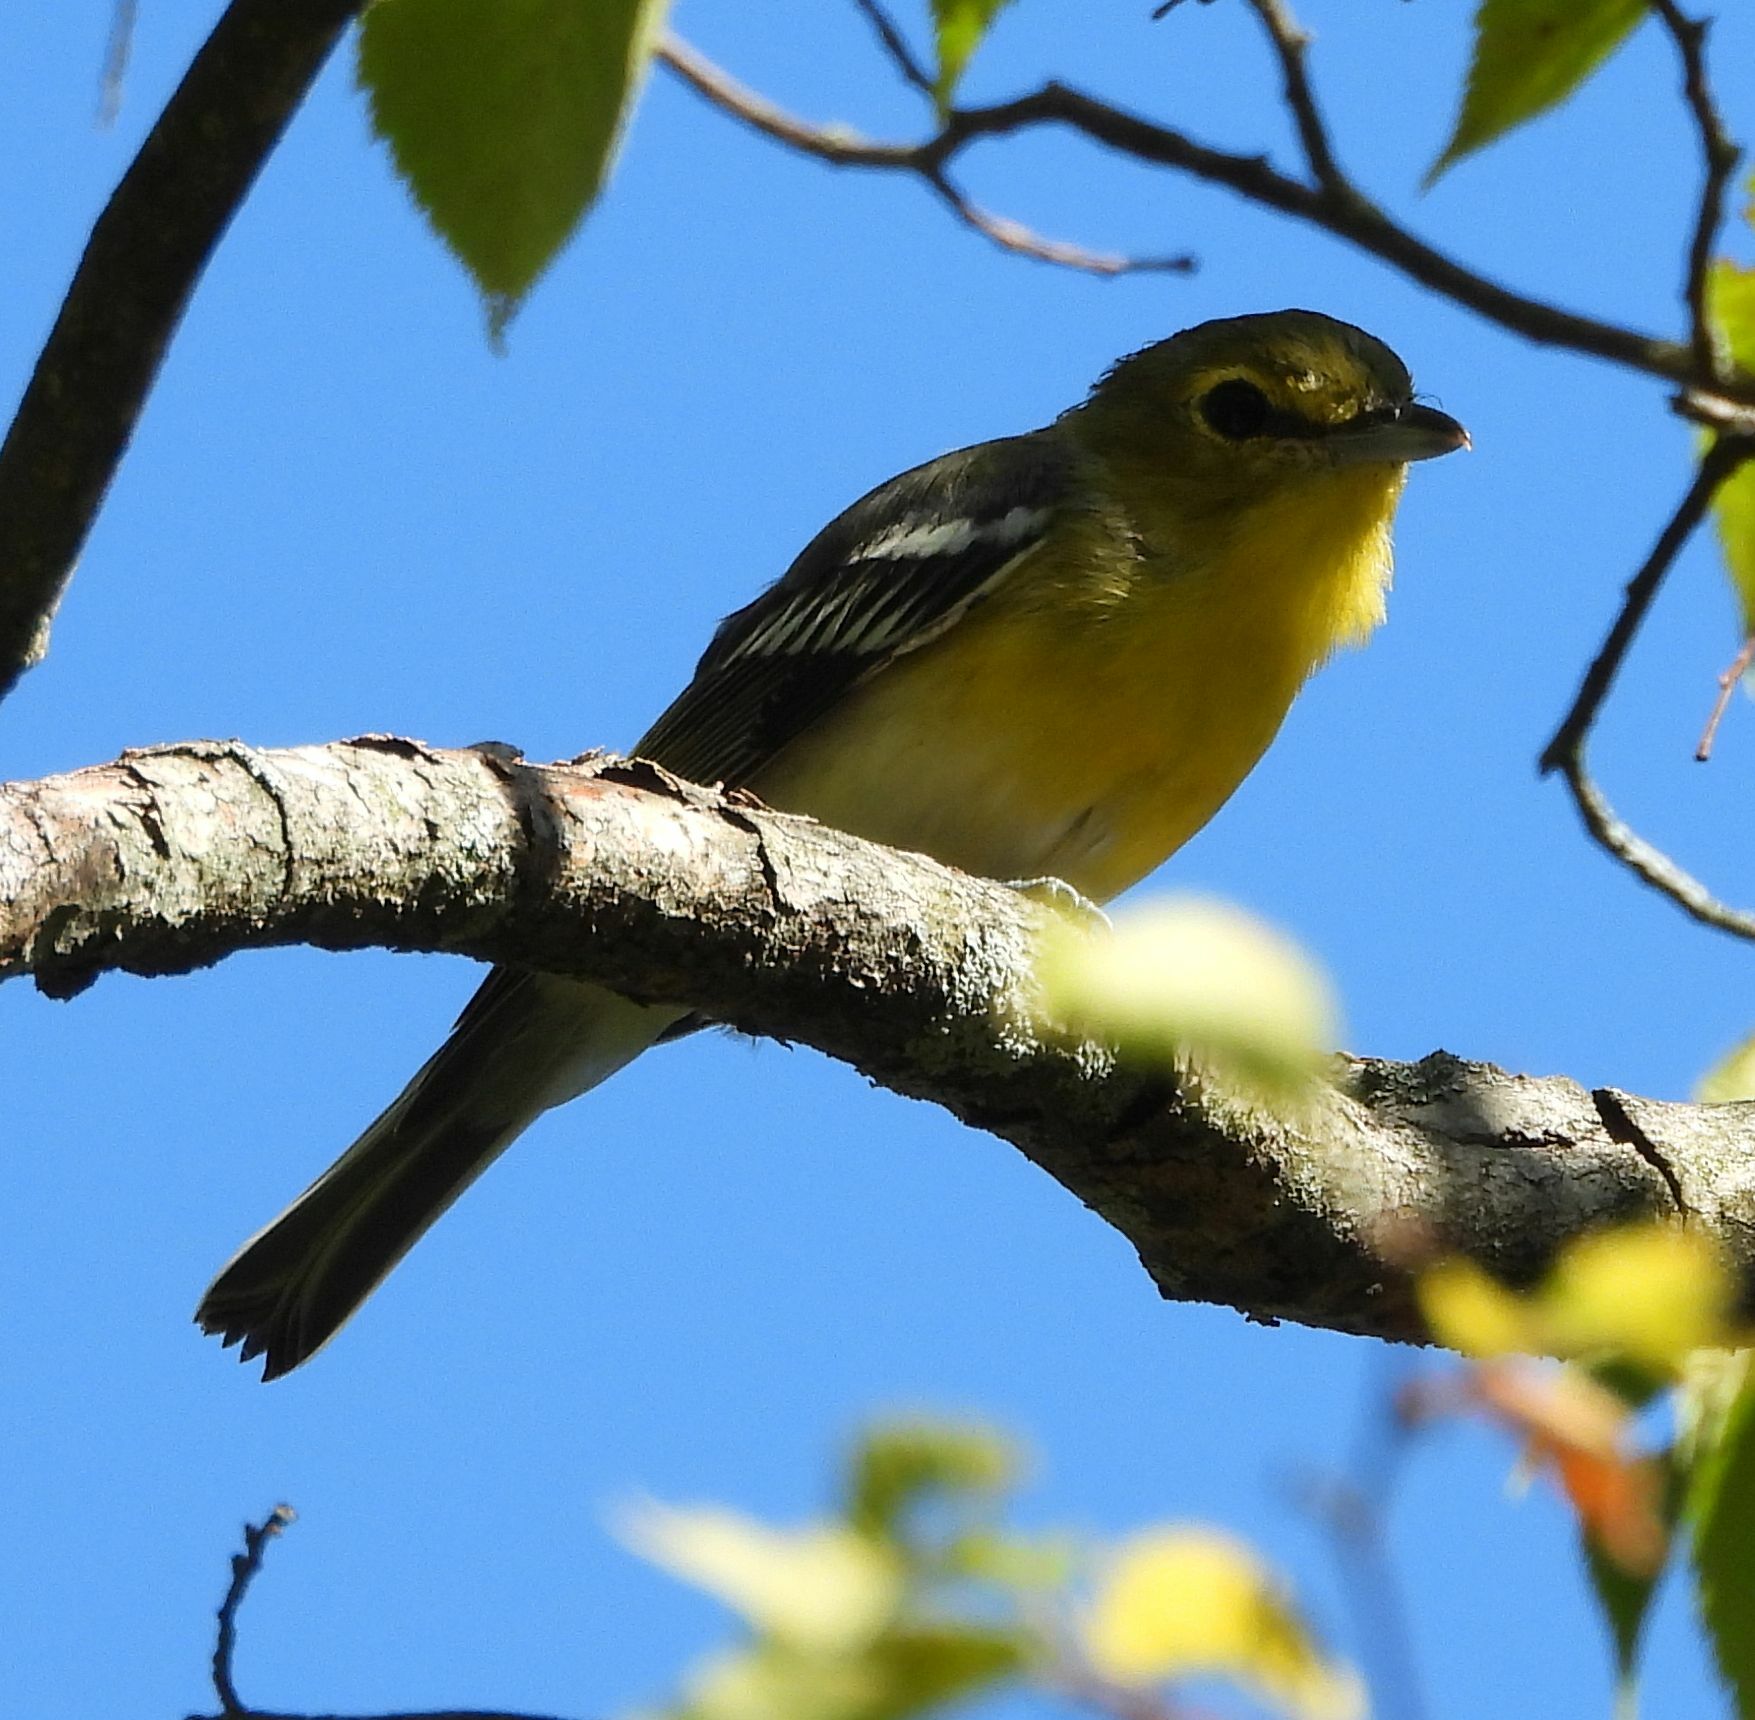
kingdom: Animalia
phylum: Chordata
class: Aves
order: Passeriformes
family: Vireonidae
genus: Vireo
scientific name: Vireo flavifrons
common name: Yellow-throated vireo
